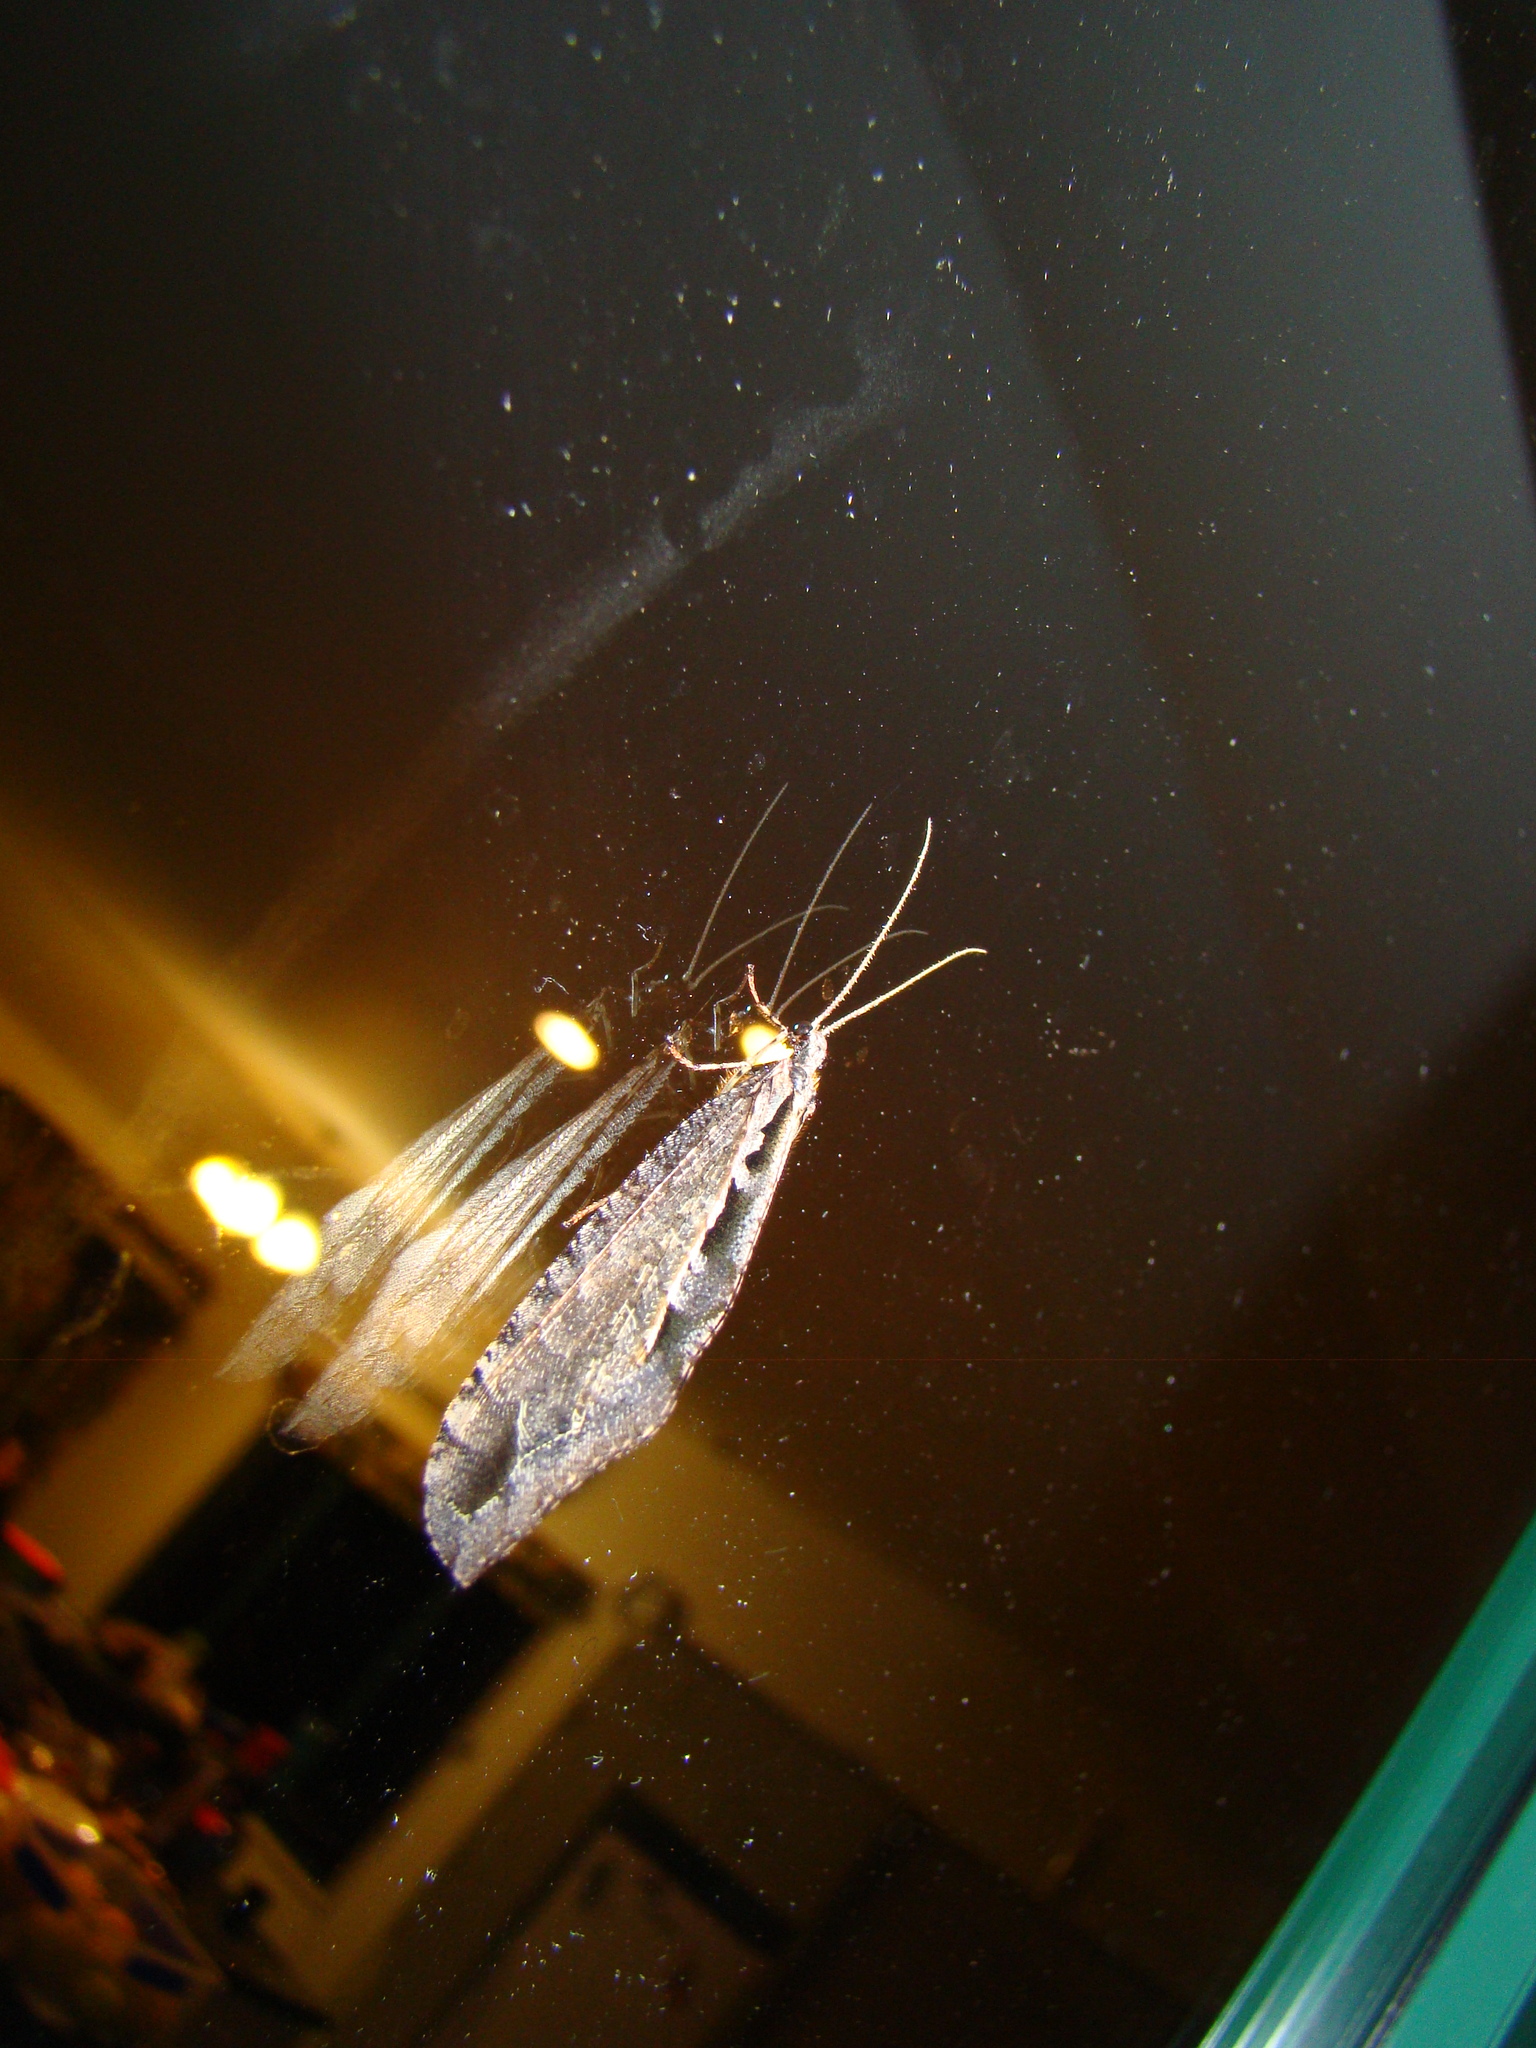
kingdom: Animalia
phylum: Arthropoda
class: Insecta
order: Neuroptera
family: Osmylidae
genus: Kempynus
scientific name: Kempynus incisus
